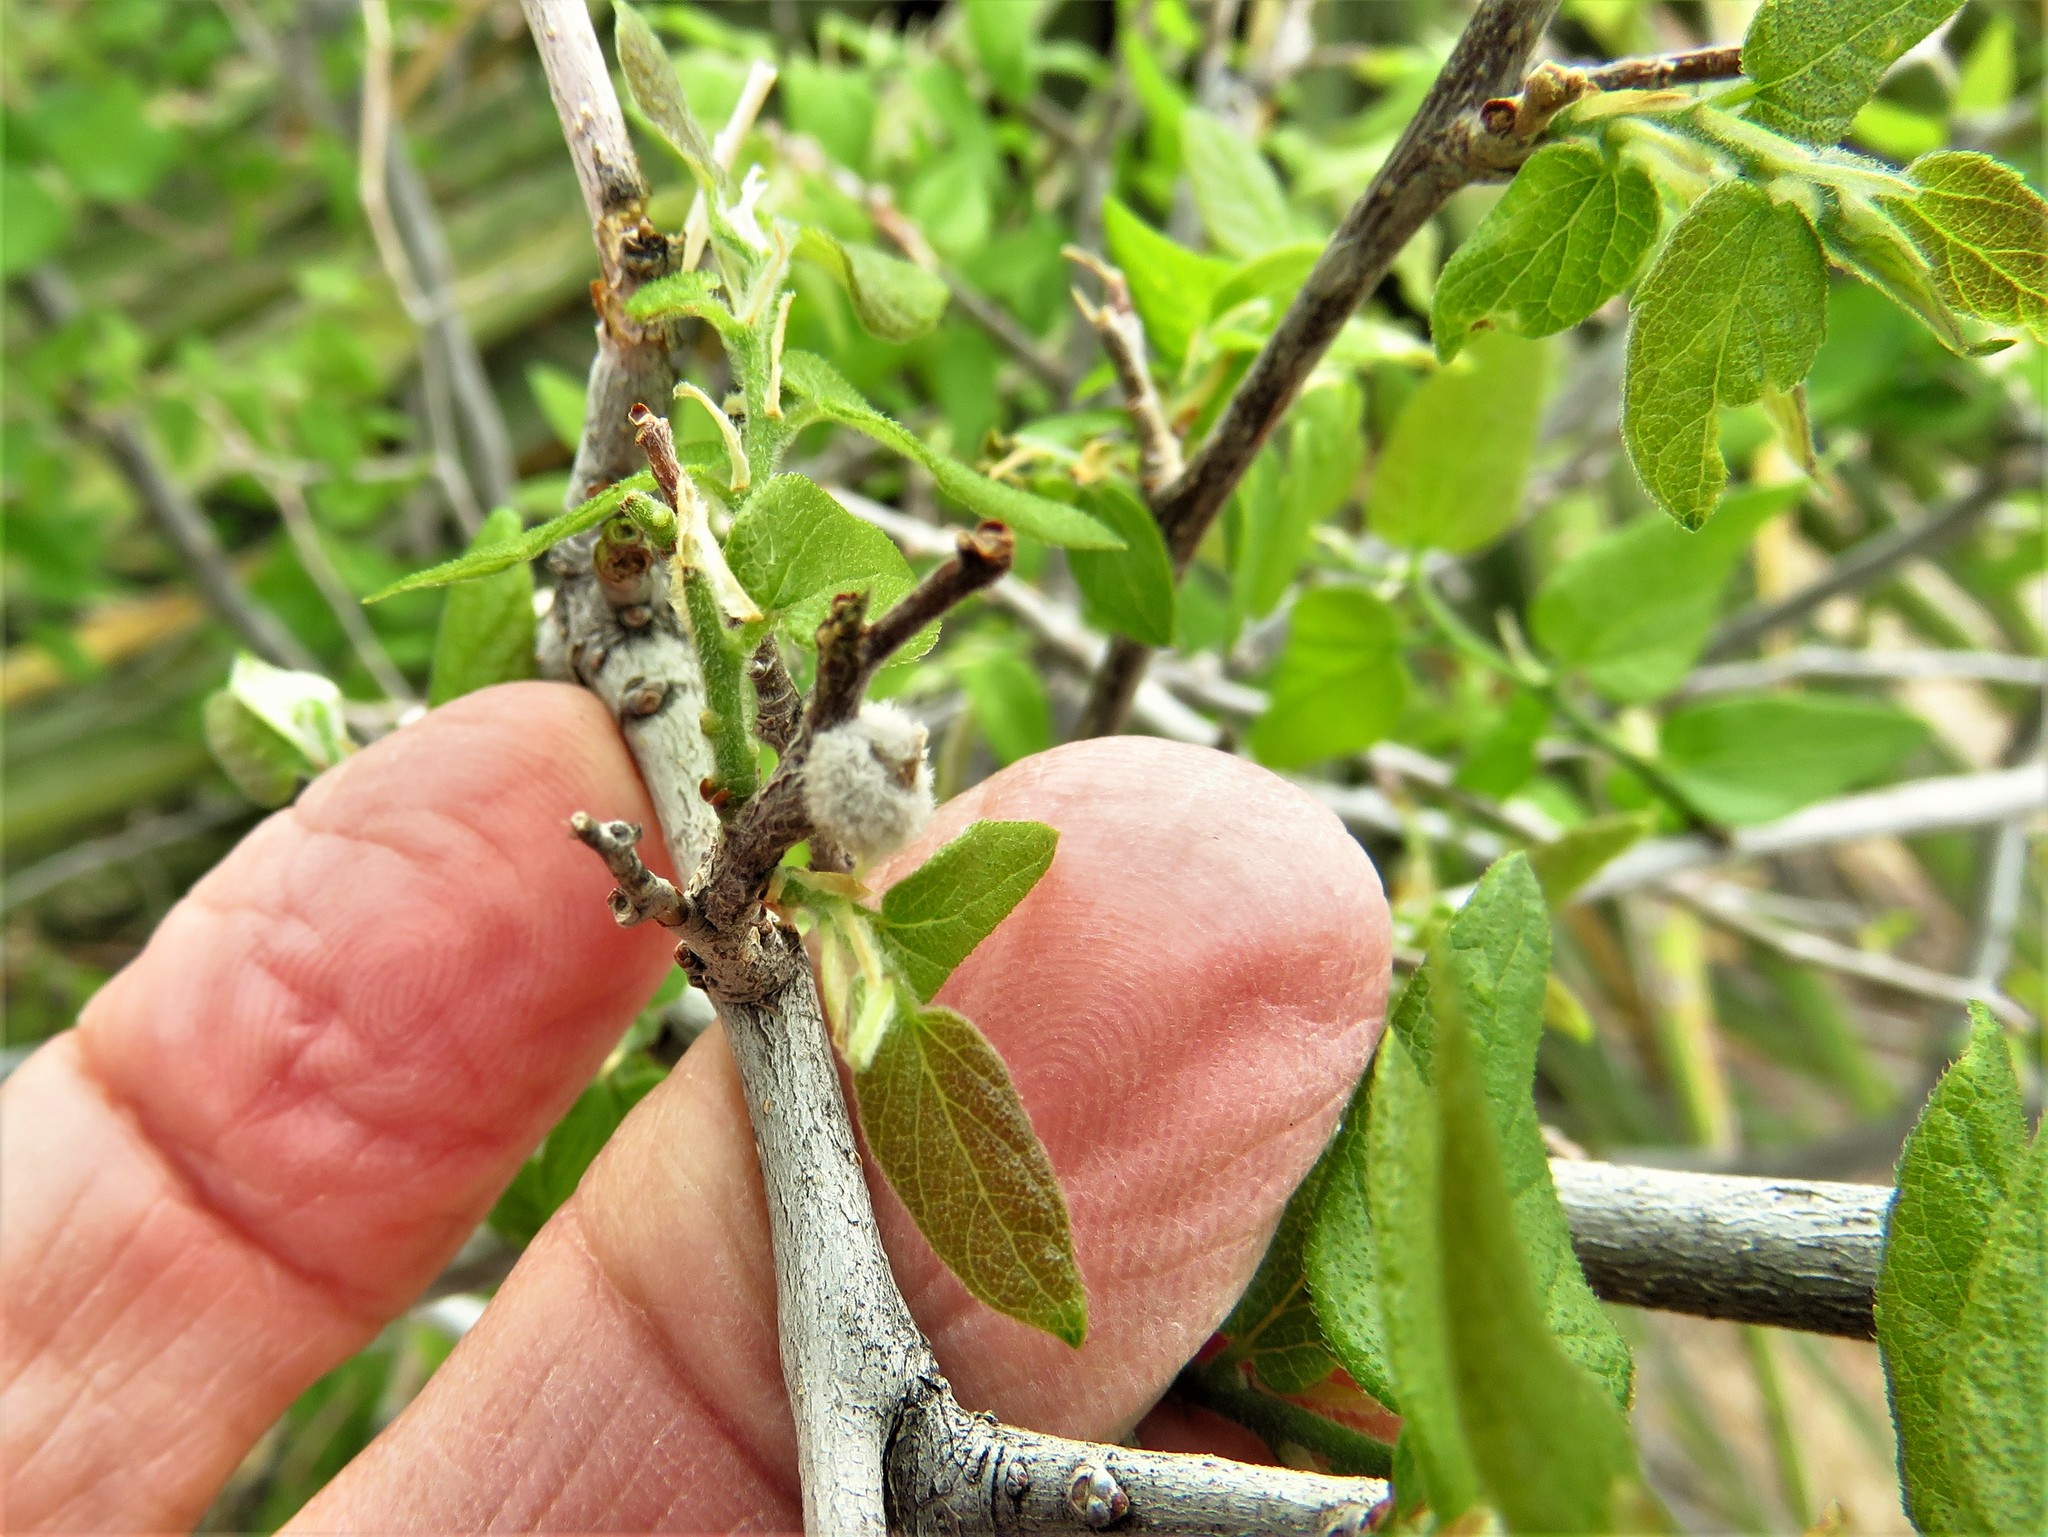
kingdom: Animalia
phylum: Arthropoda
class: Insecta
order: Hemiptera
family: Aphalaridae
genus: Pachypsylla
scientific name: Pachypsylla pallida
